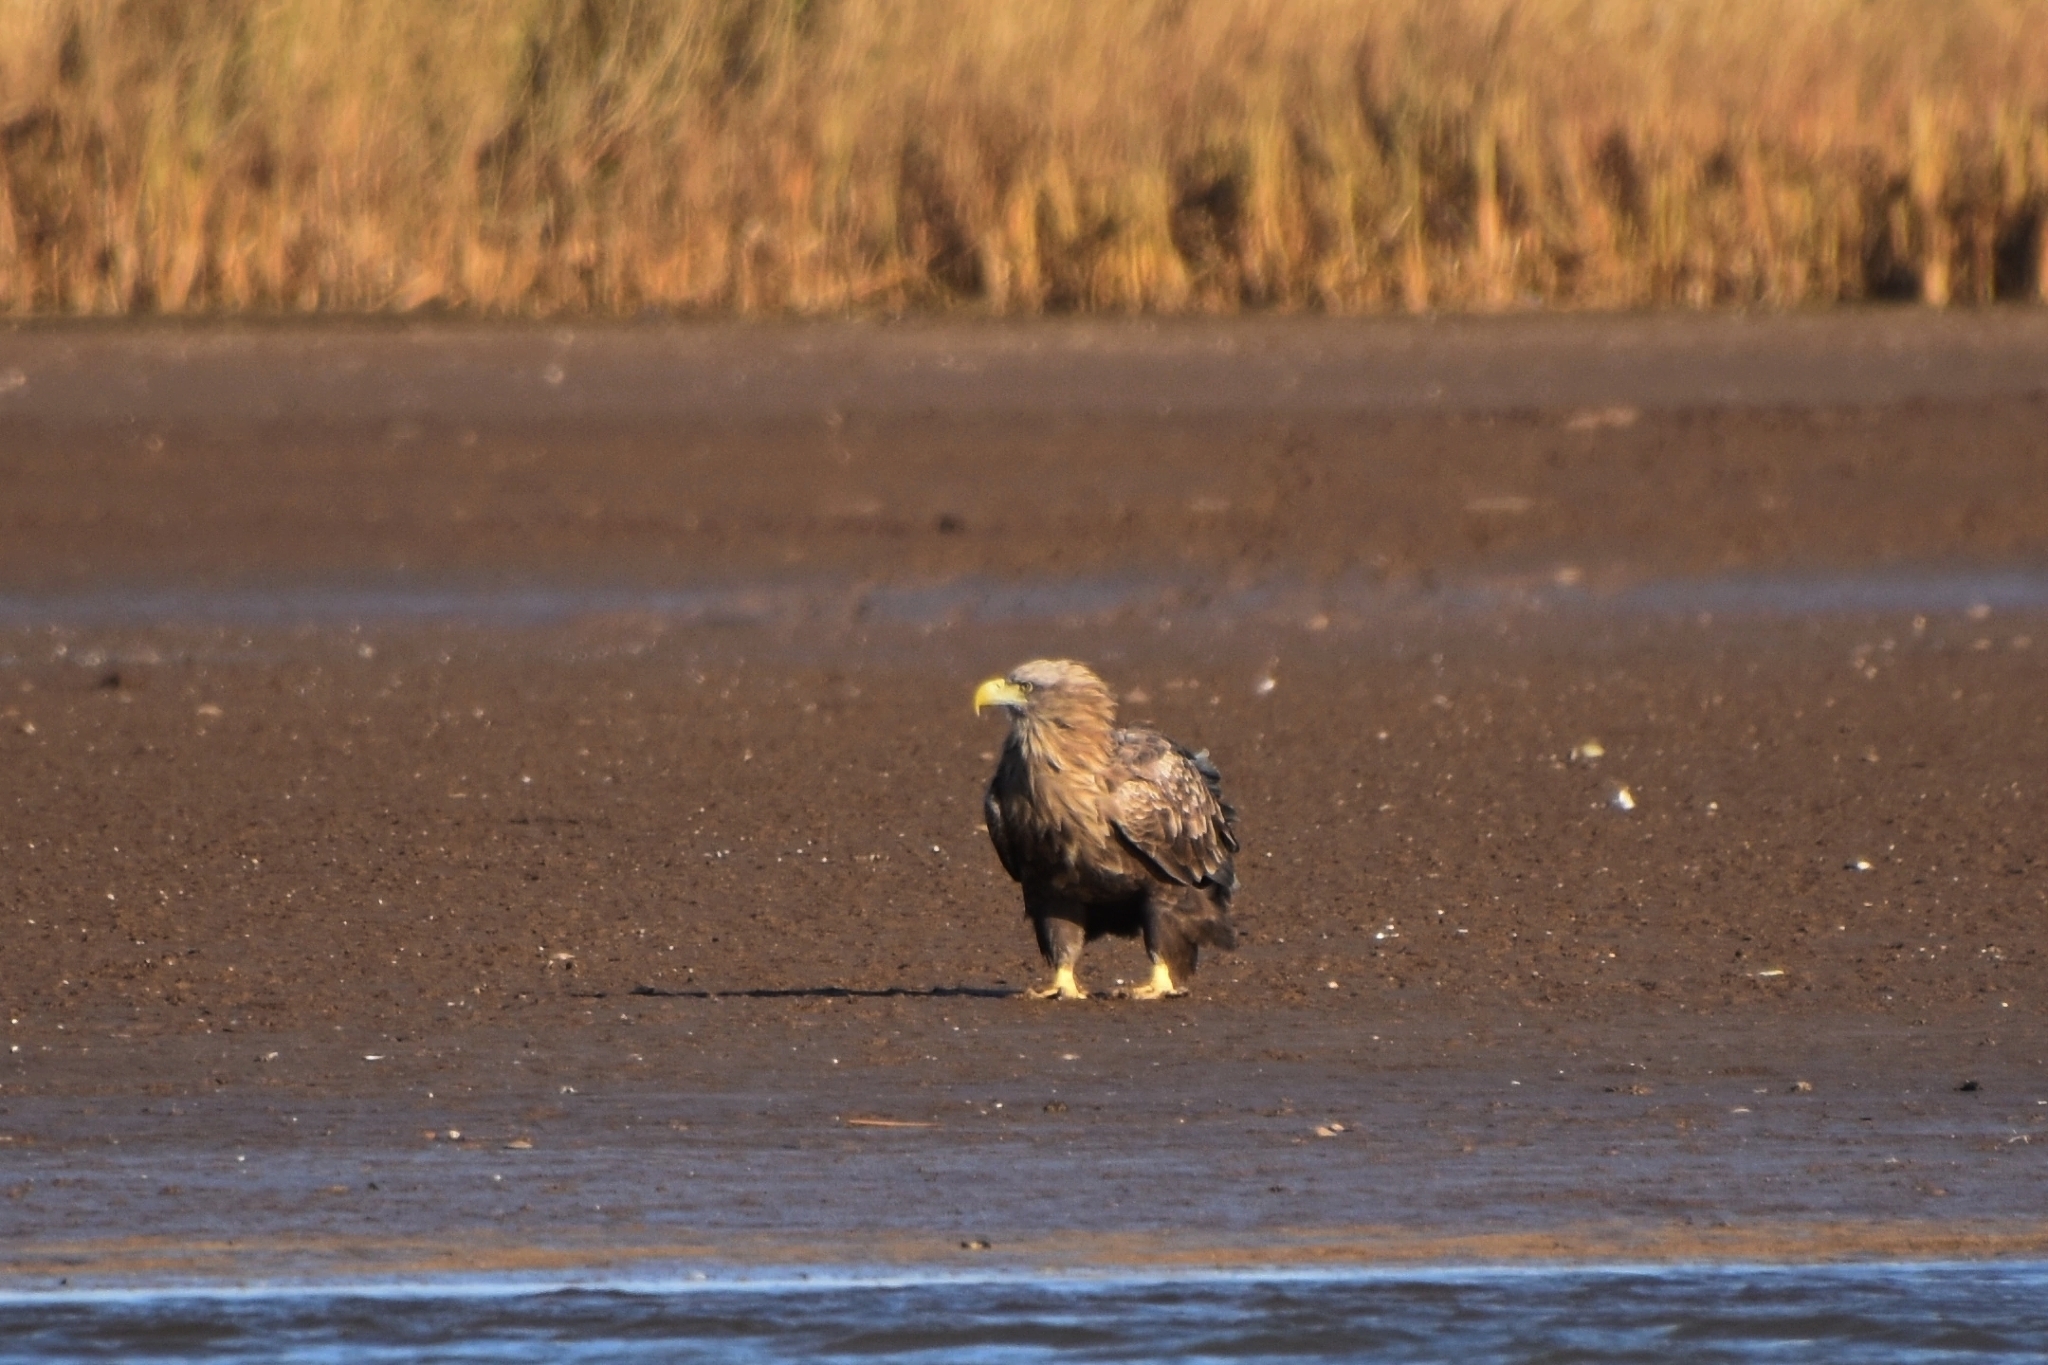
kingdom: Animalia
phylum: Chordata
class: Aves
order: Accipitriformes
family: Accipitridae
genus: Haliaeetus
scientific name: Haliaeetus albicilla
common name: White-tailed eagle
